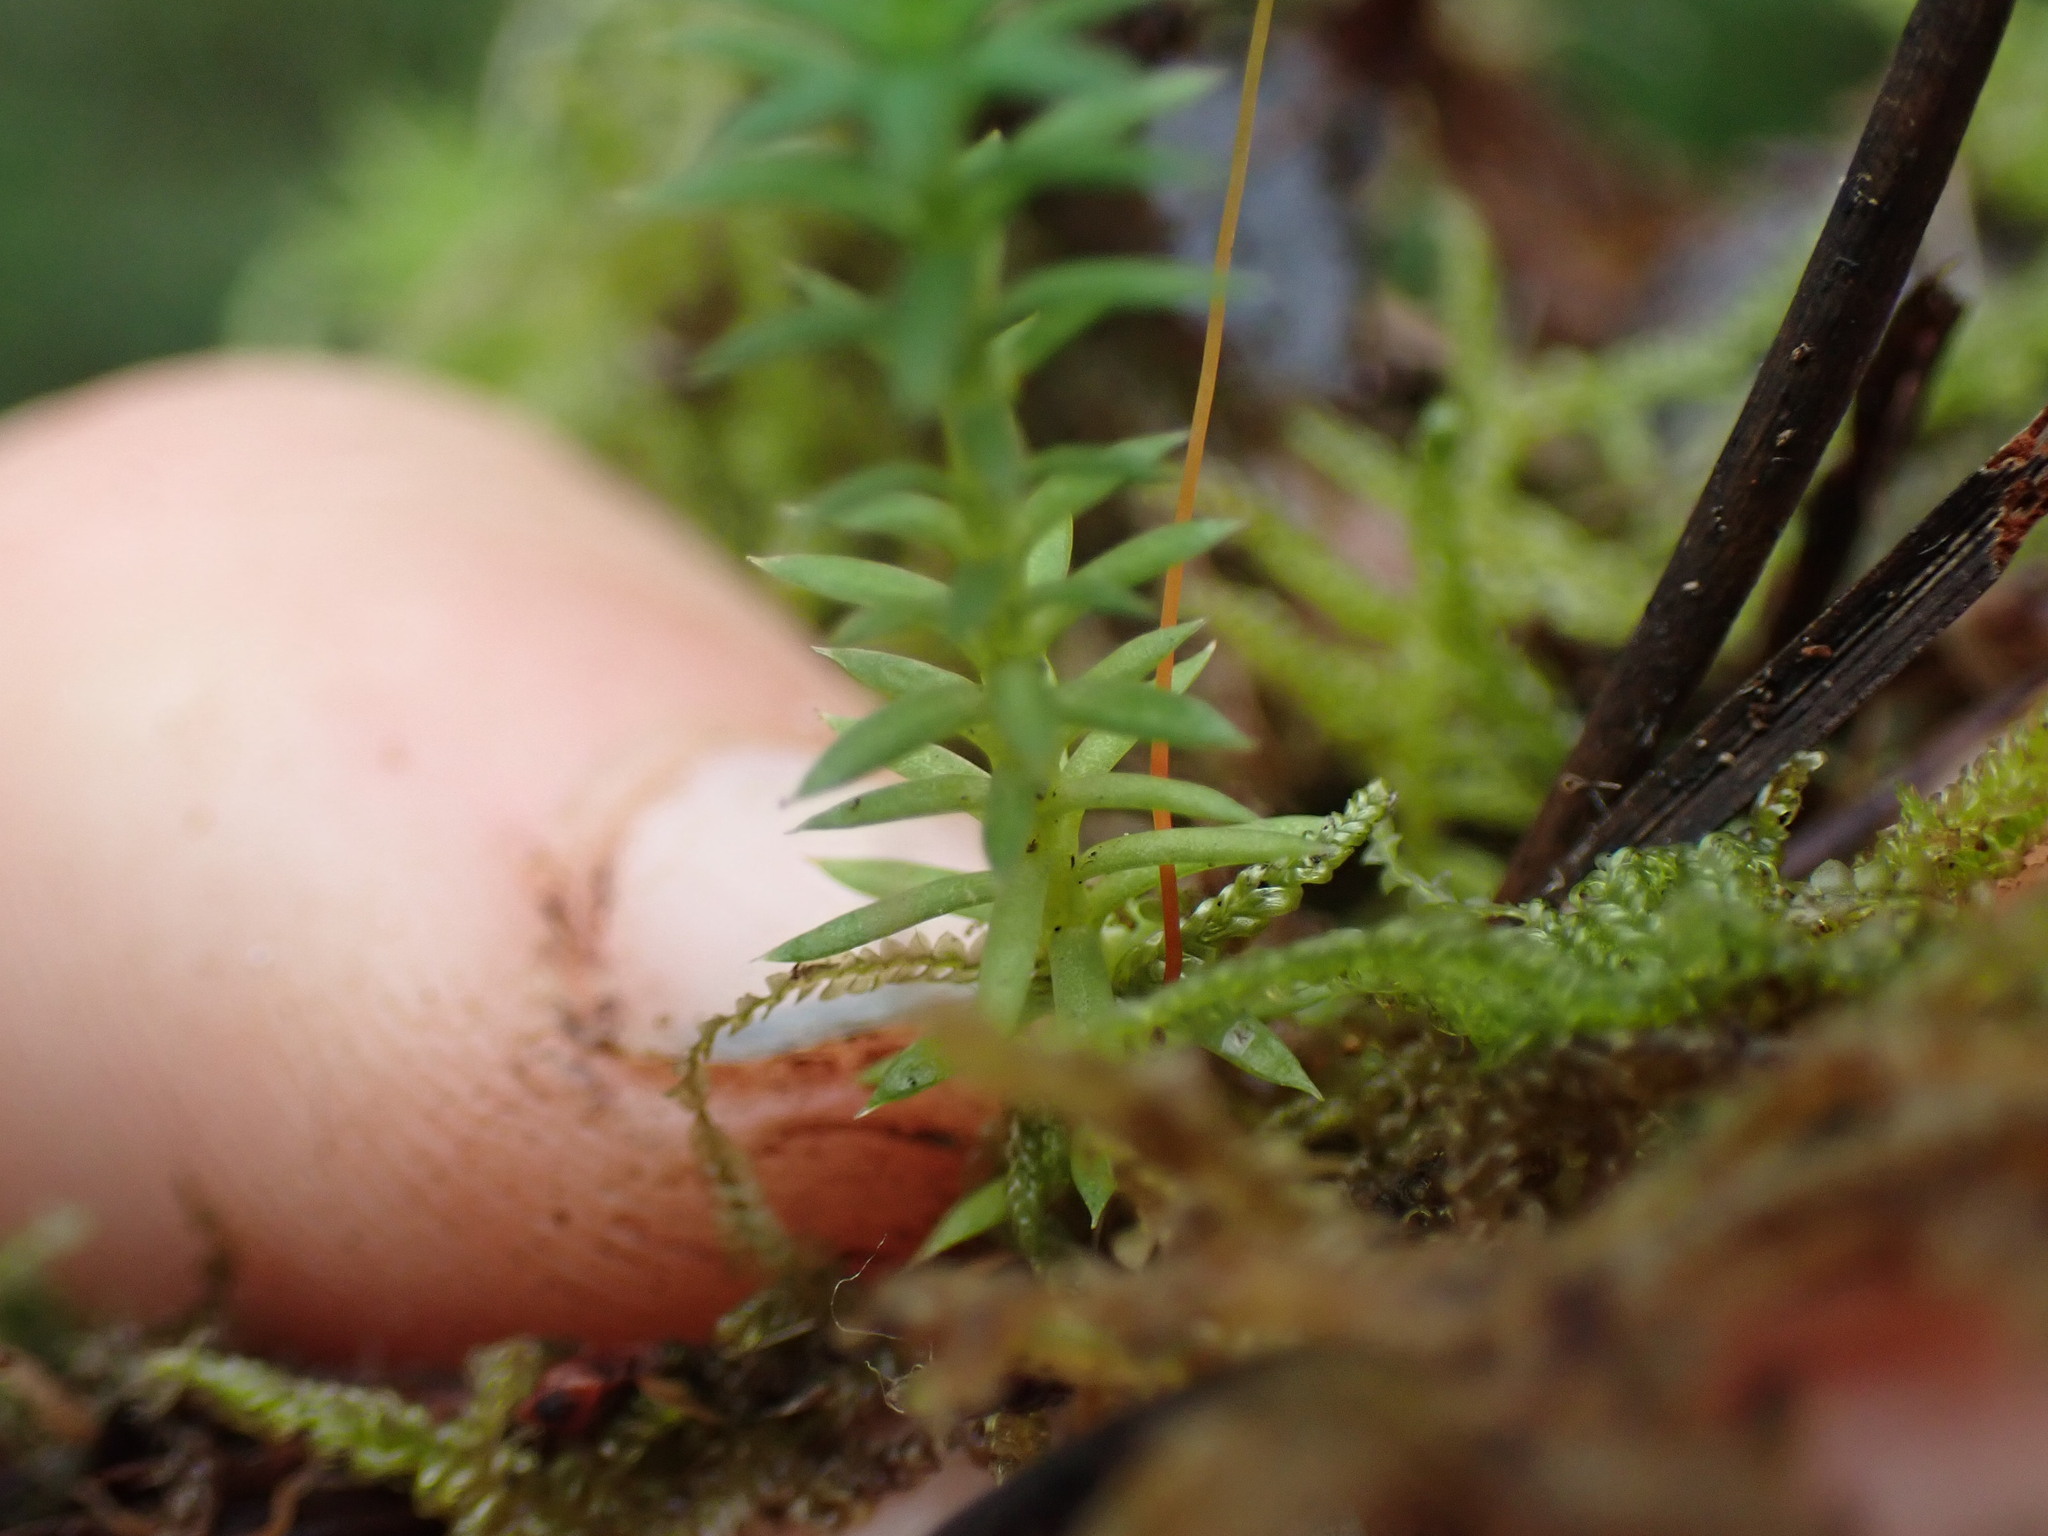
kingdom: Plantae
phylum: Tracheophyta
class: Magnoliopsida
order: Lamiales
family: Plantaginaceae
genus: Hippuris
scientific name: Hippuris montana
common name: Mountain mare's-tail
